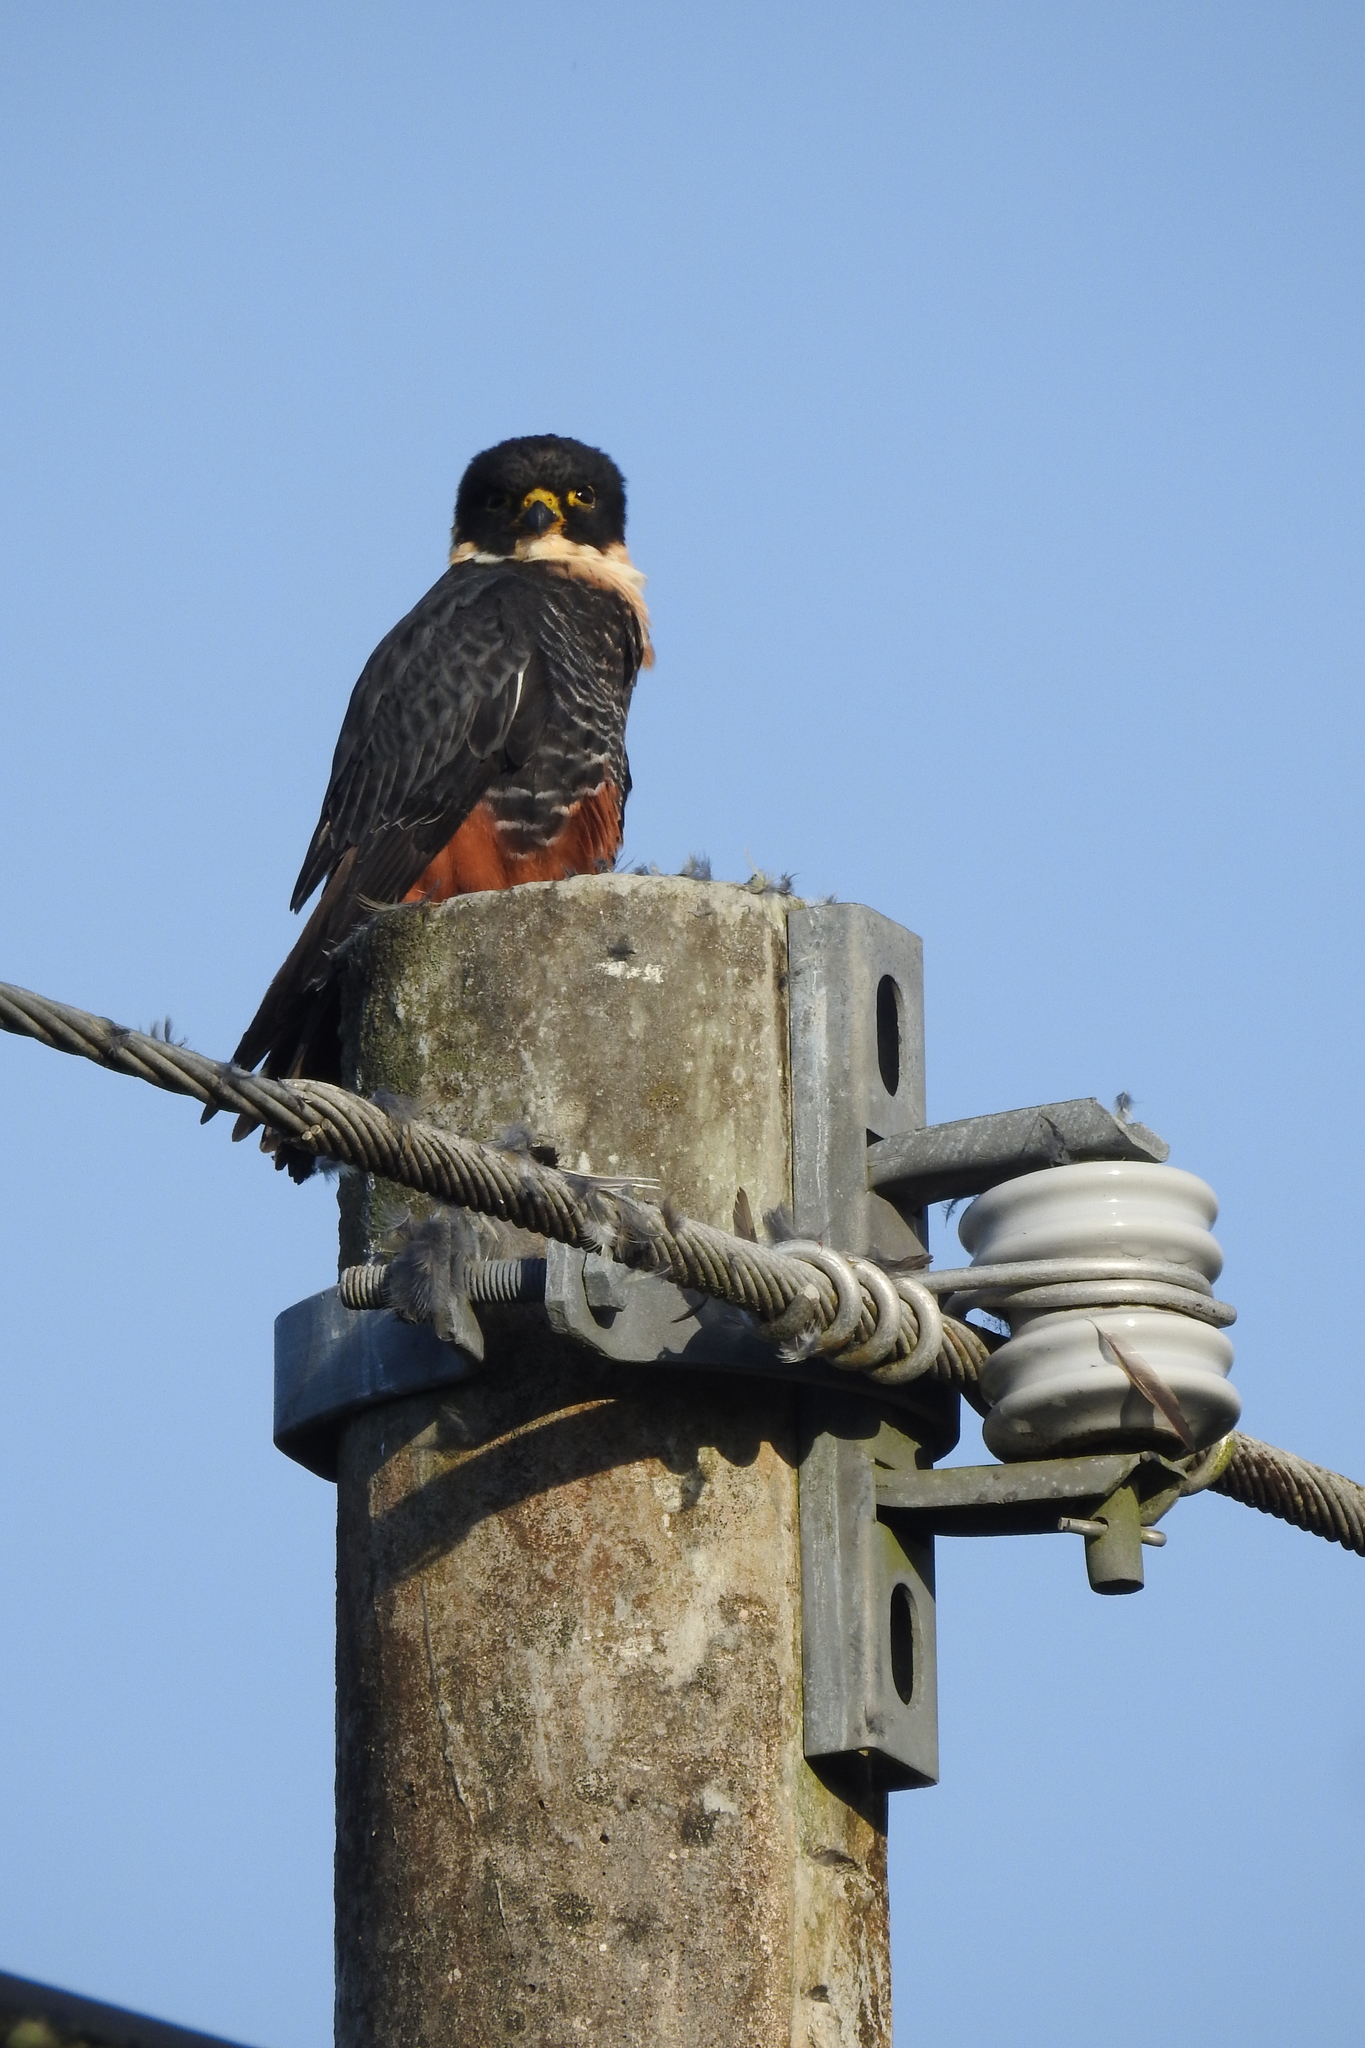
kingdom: Animalia
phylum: Chordata
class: Aves
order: Falconiformes
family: Falconidae
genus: Falco
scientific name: Falco rufigularis
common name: Bat falcon
